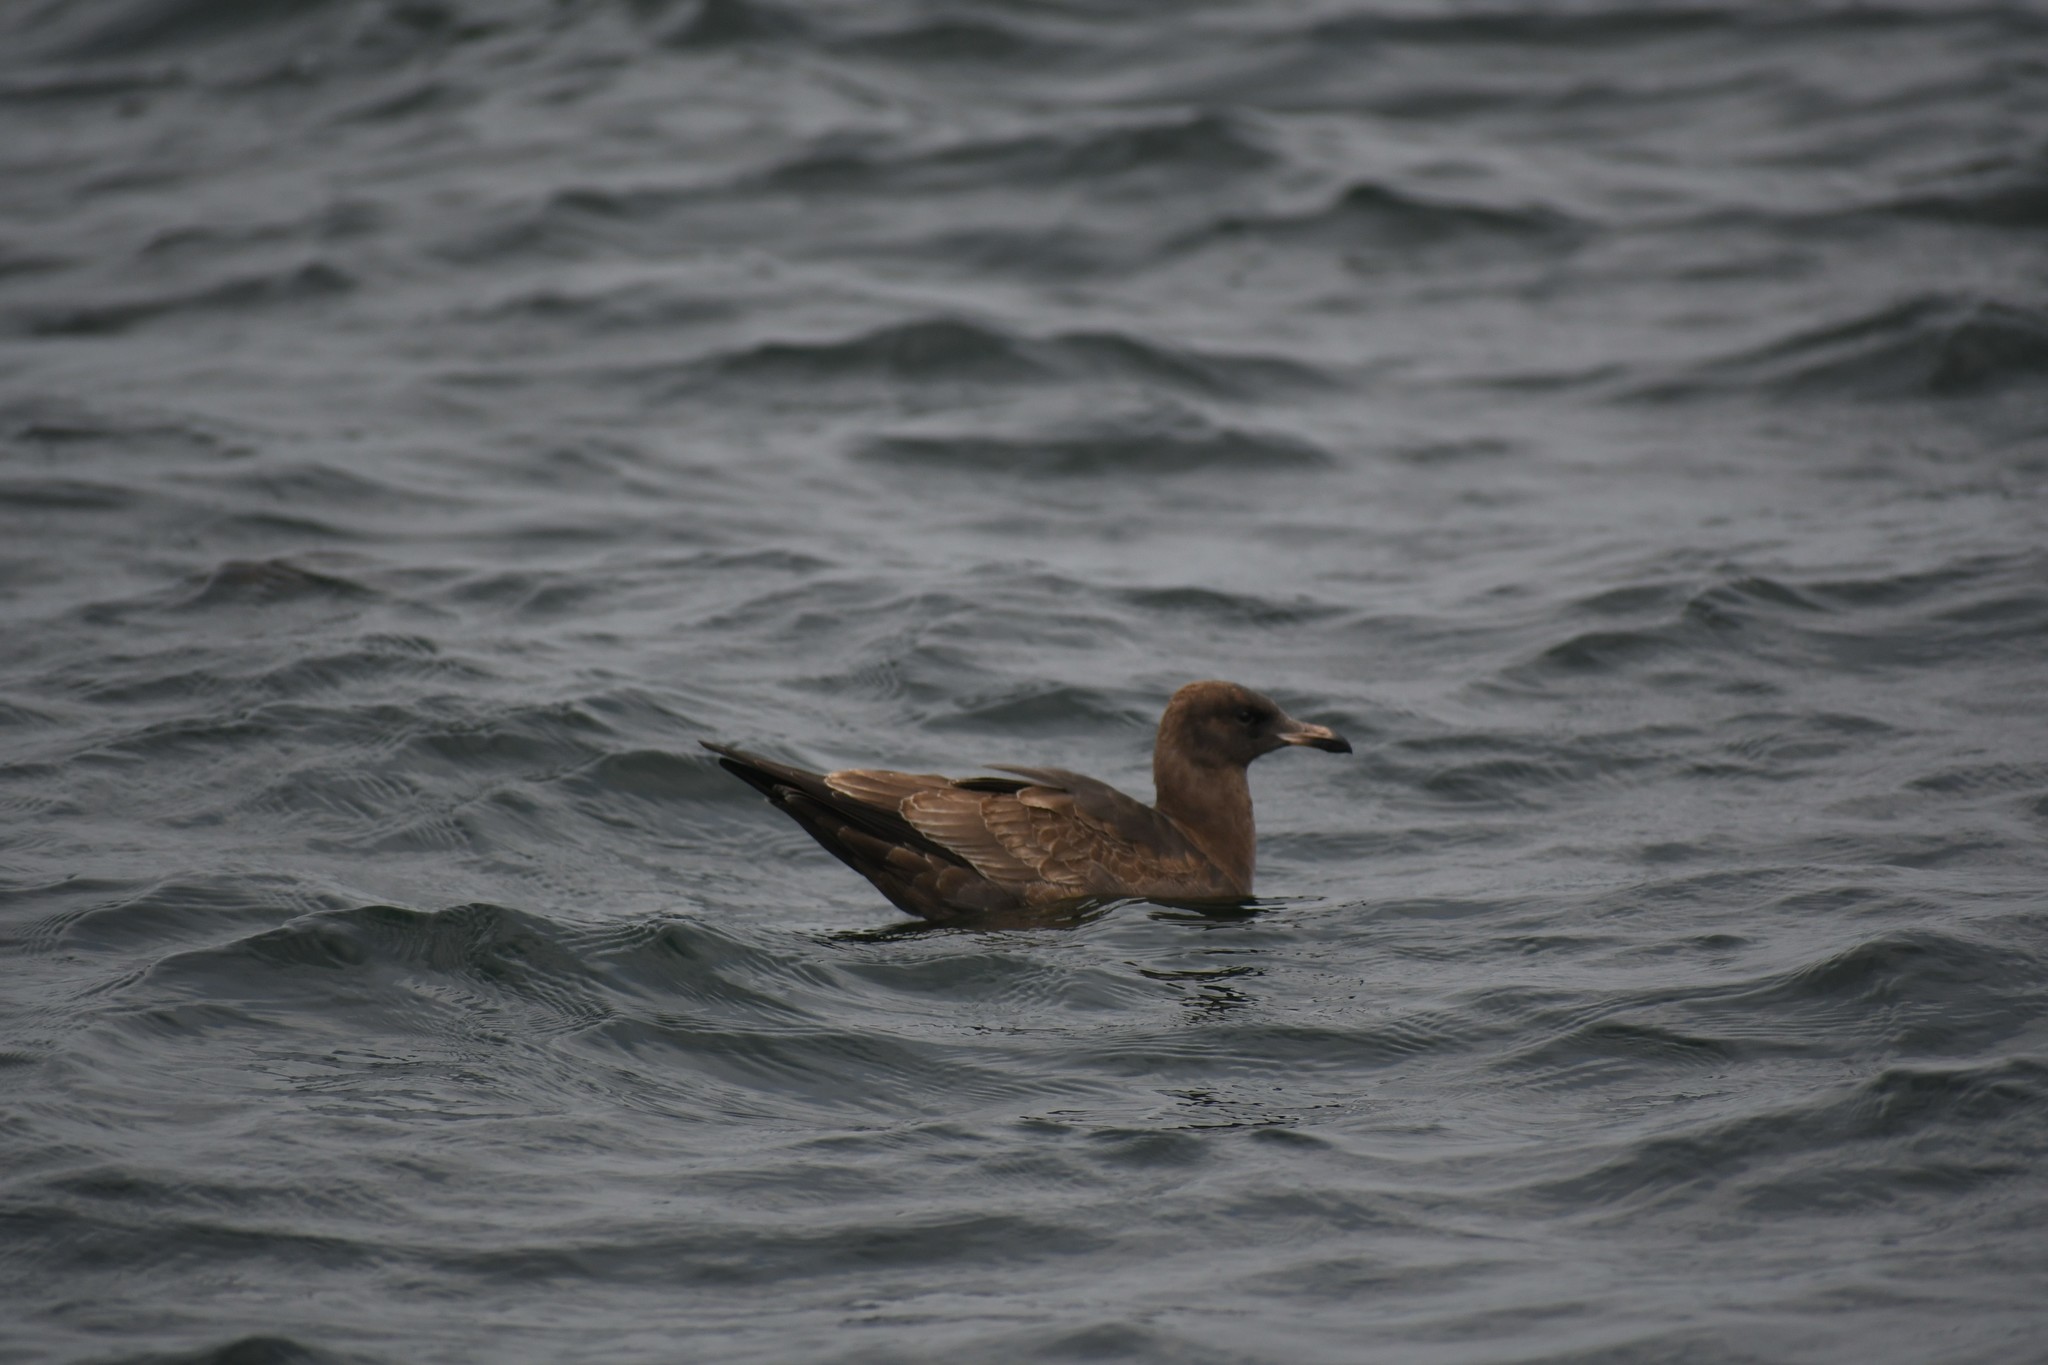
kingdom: Animalia
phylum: Chordata
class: Aves
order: Charadriiformes
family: Laridae
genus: Larus
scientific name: Larus heermanni
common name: Heermann's gull
